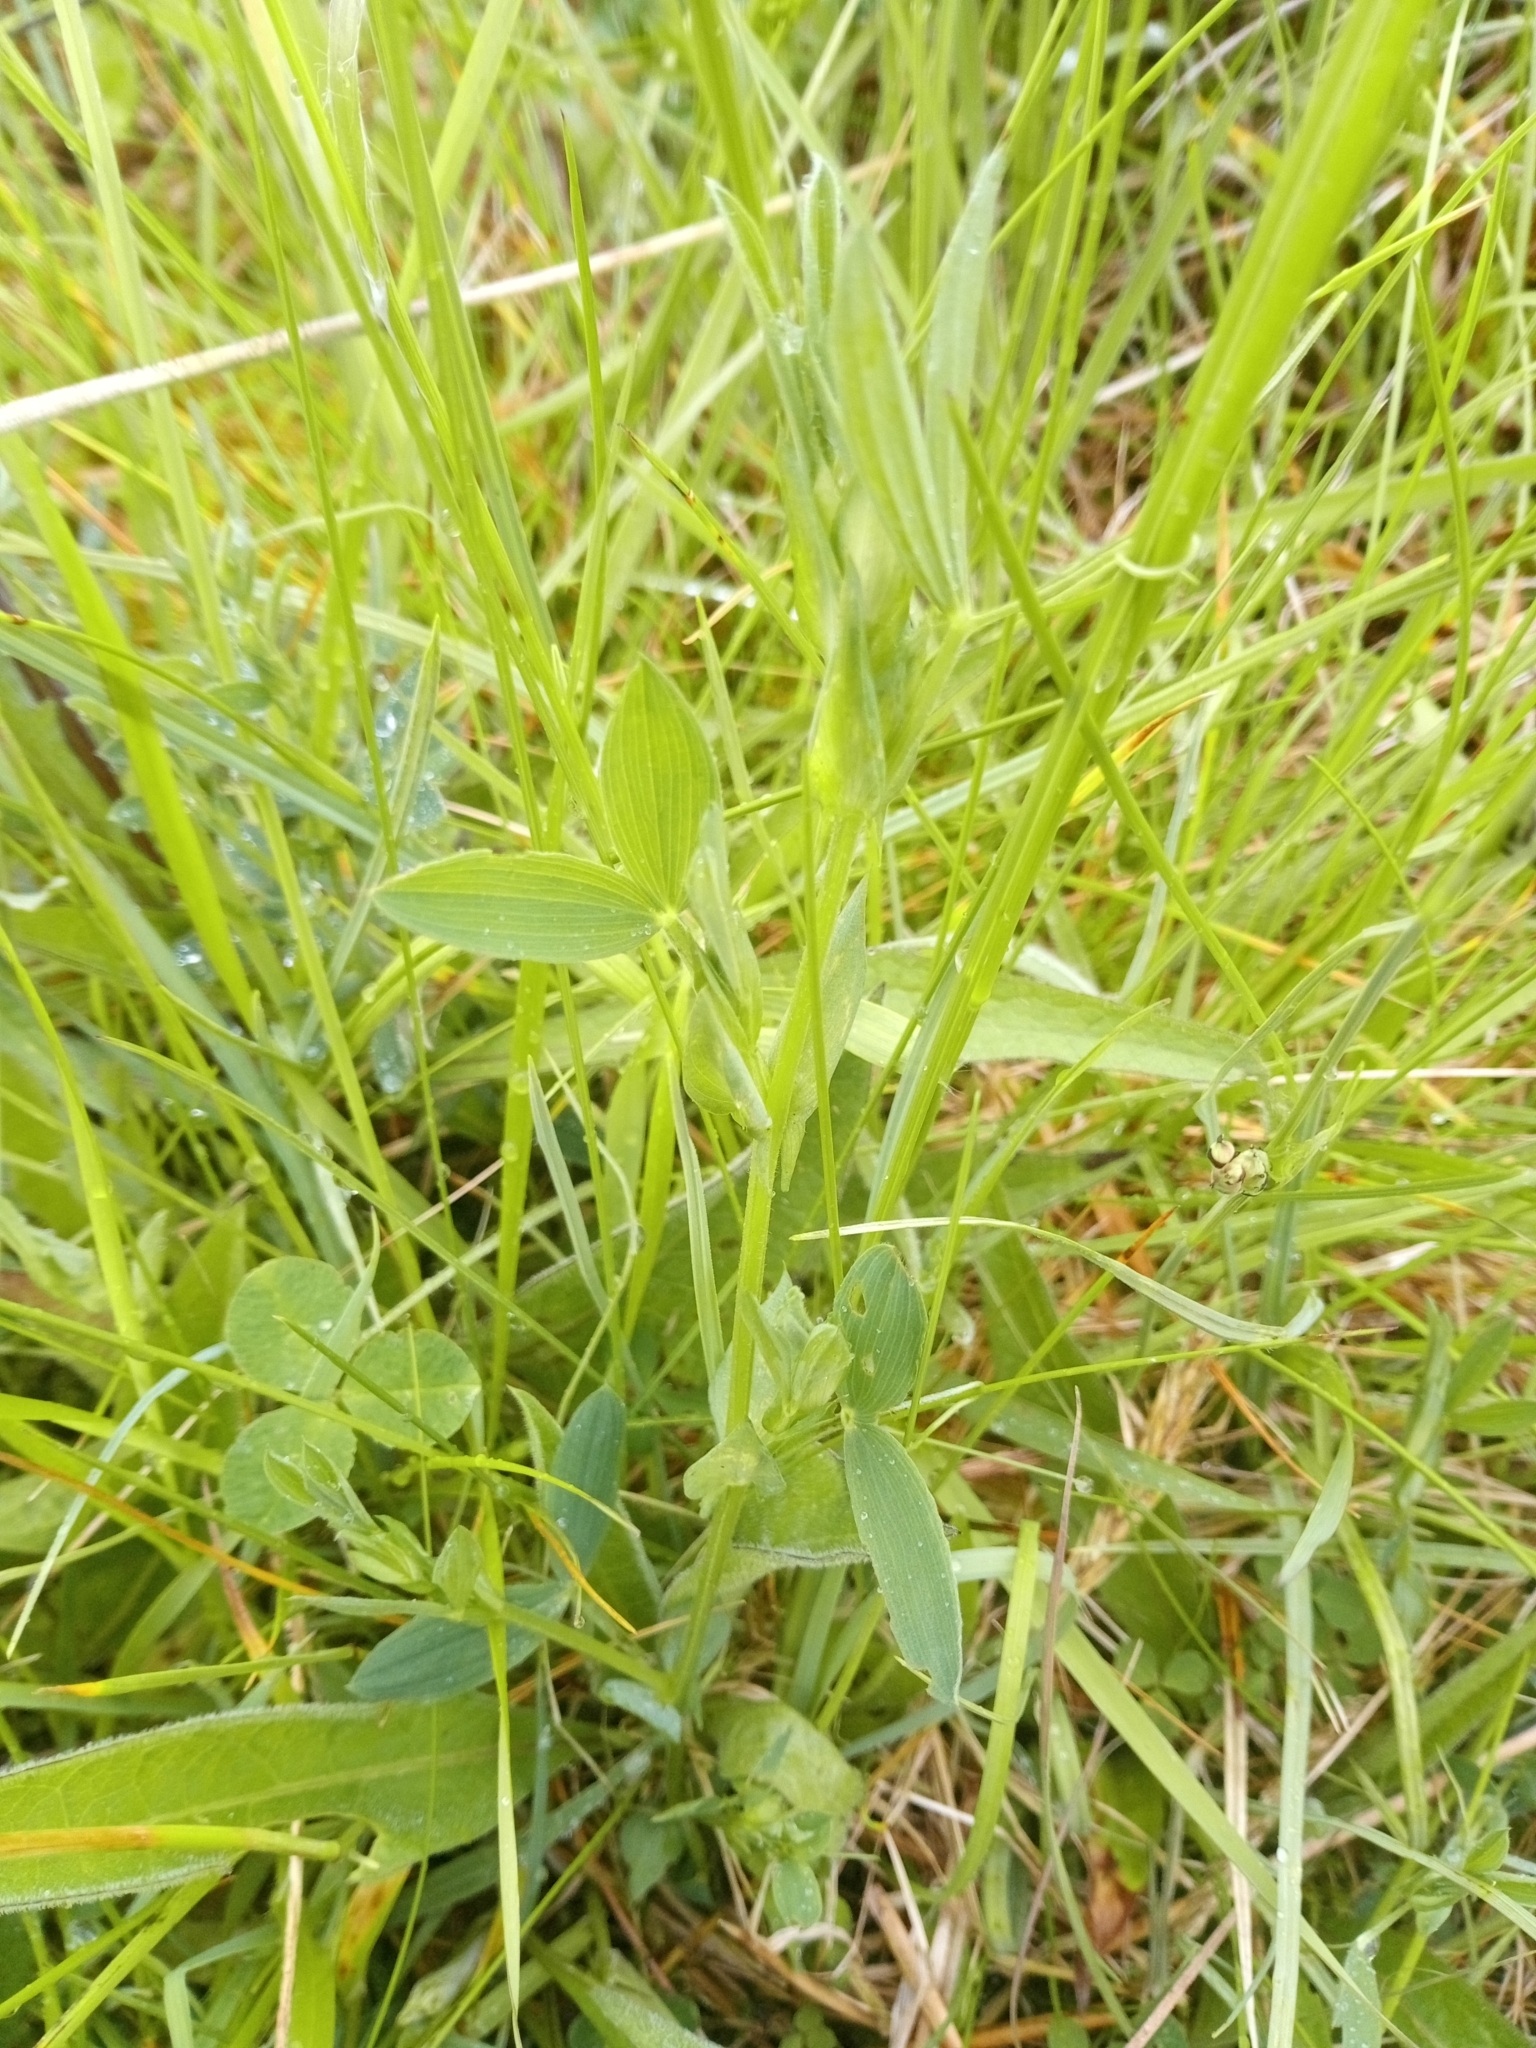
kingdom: Plantae
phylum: Tracheophyta
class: Magnoliopsida
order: Fabales
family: Fabaceae
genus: Lathyrus
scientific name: Lathyrus pratensis
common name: Meadow vetchling
